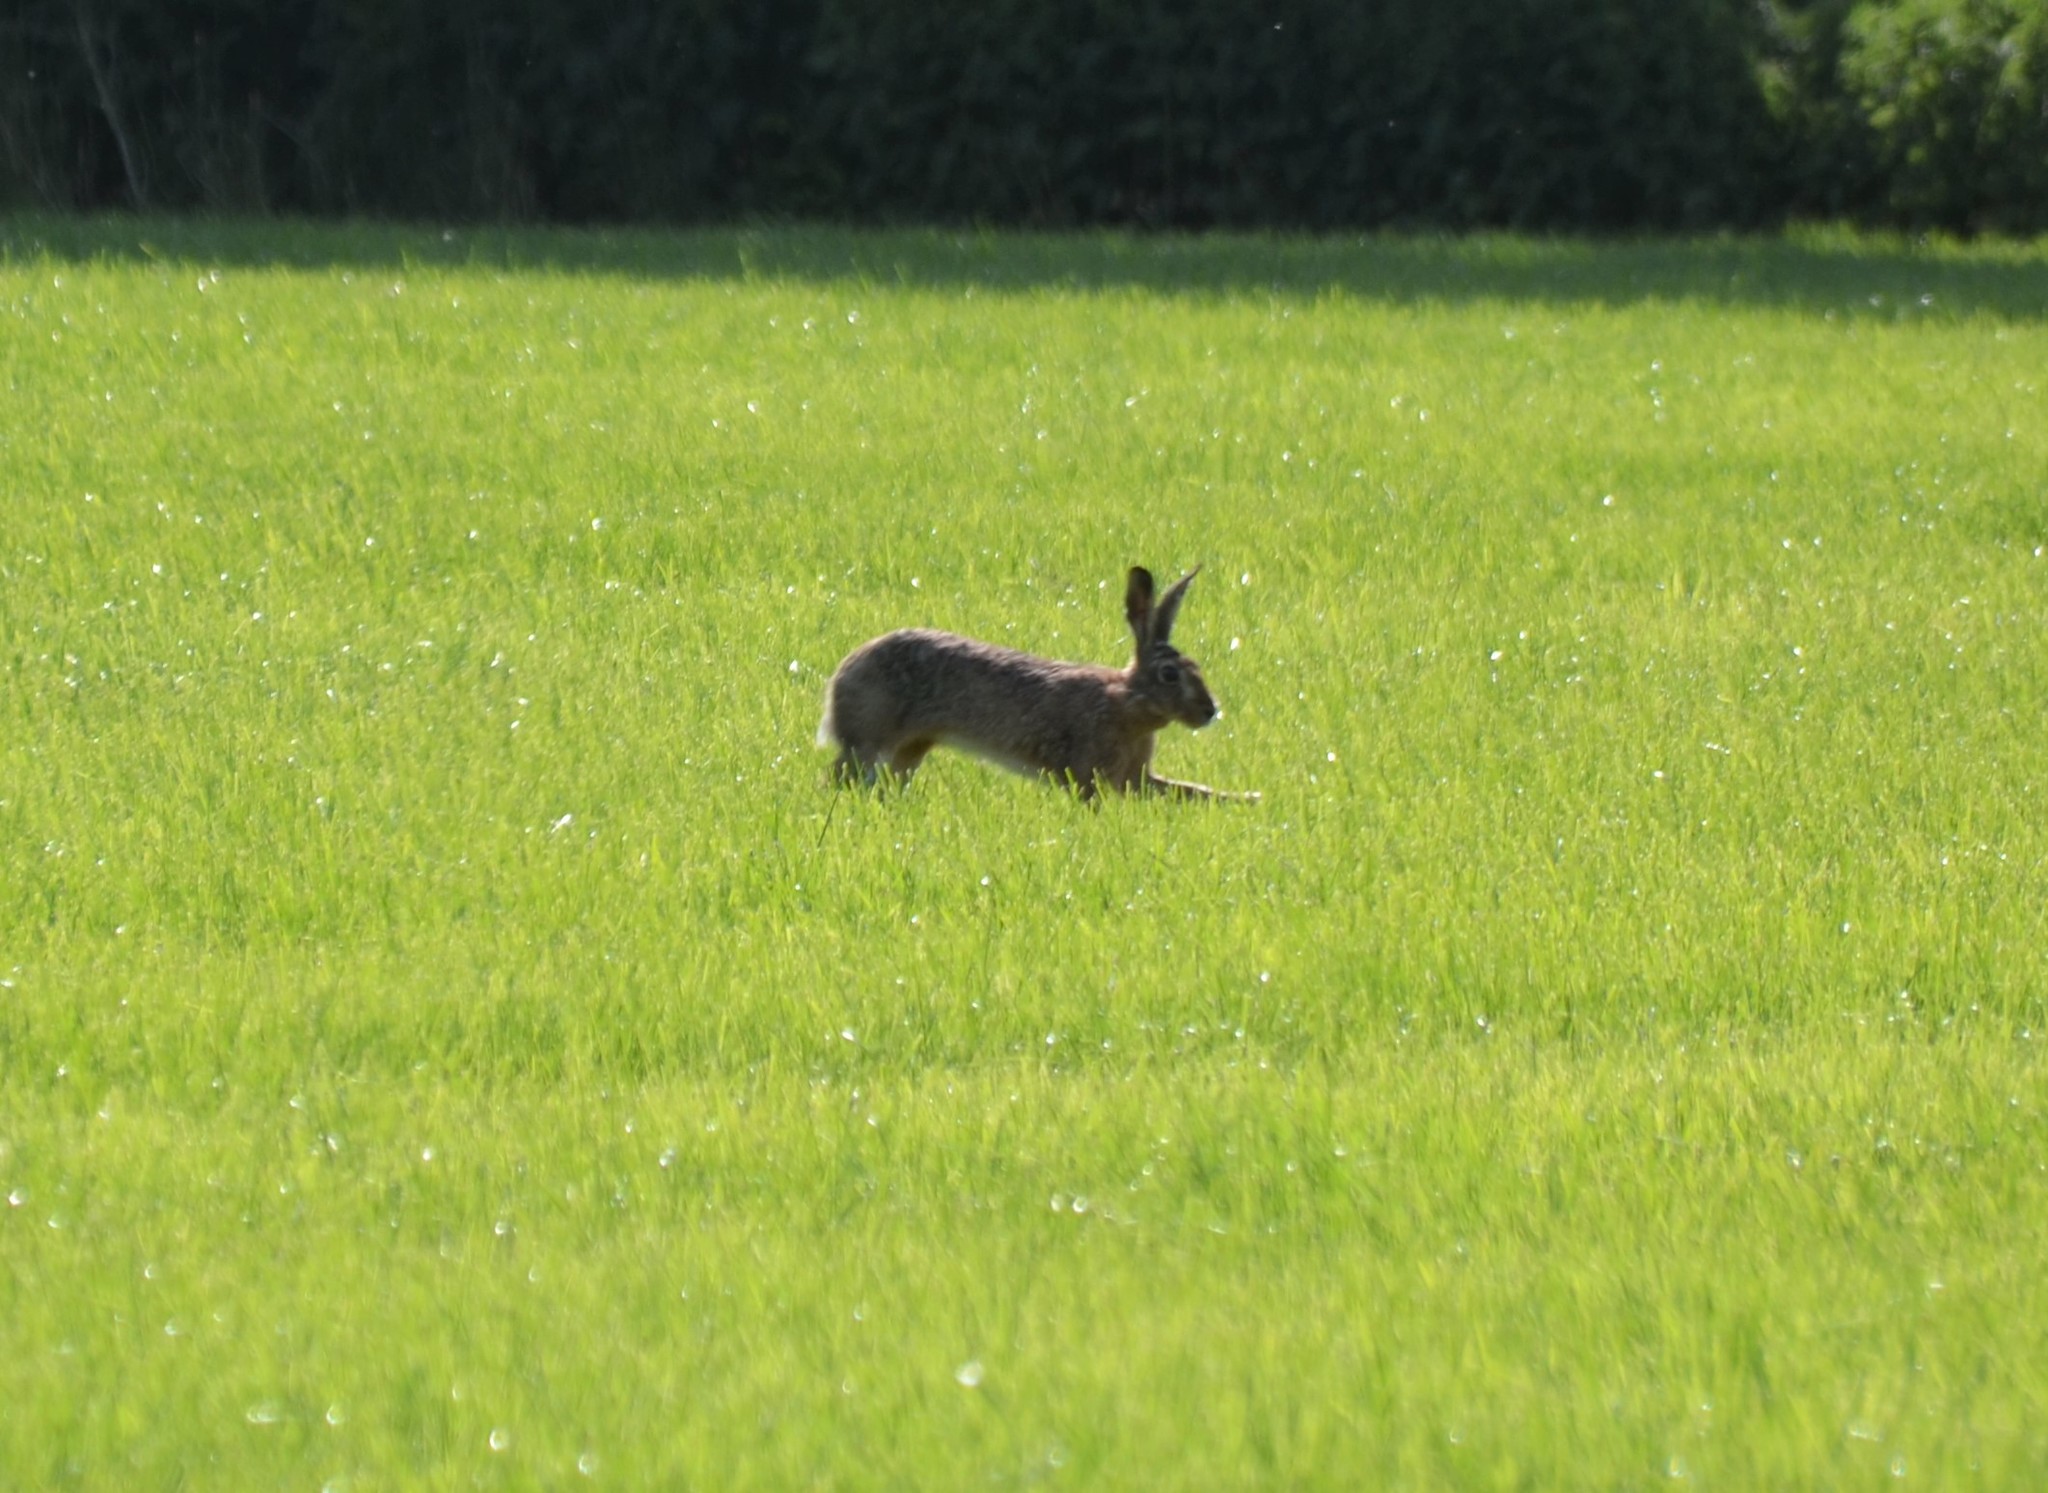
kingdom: Animalia
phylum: Chordata
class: Mammalia
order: Lagomorpha
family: Leporidae
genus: Lepus
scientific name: Lepus europaeus
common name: European hare
